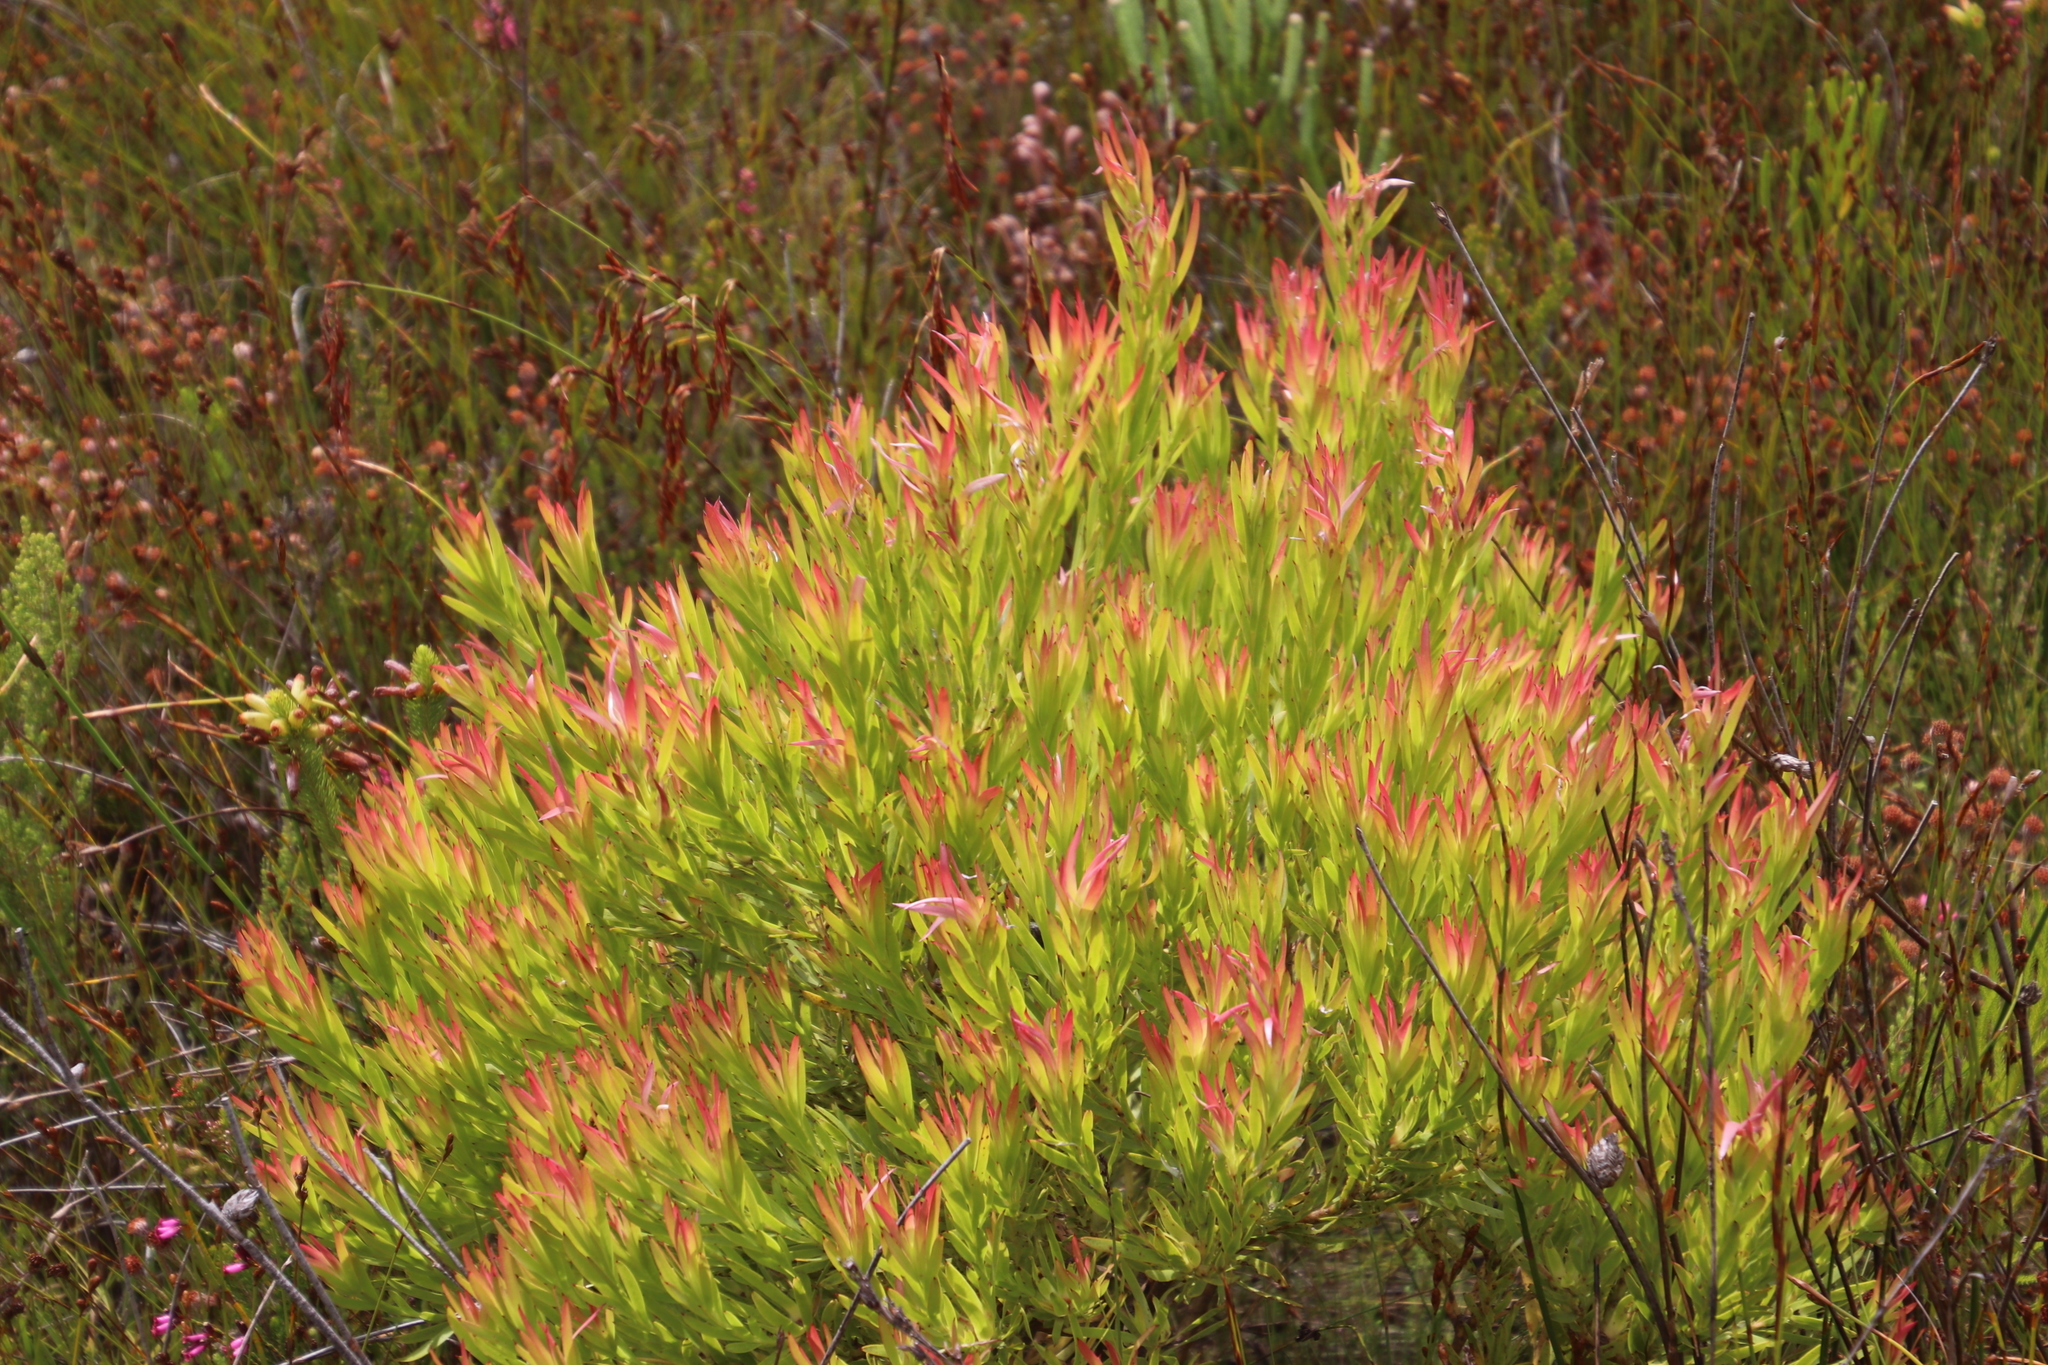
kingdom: Plantae
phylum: Tracheophyta
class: Magnoliopsida
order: Proteales
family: Proteaceae
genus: Leucadendron
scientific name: Leucadendron xanthoconus
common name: Sickle-leaf conebush
